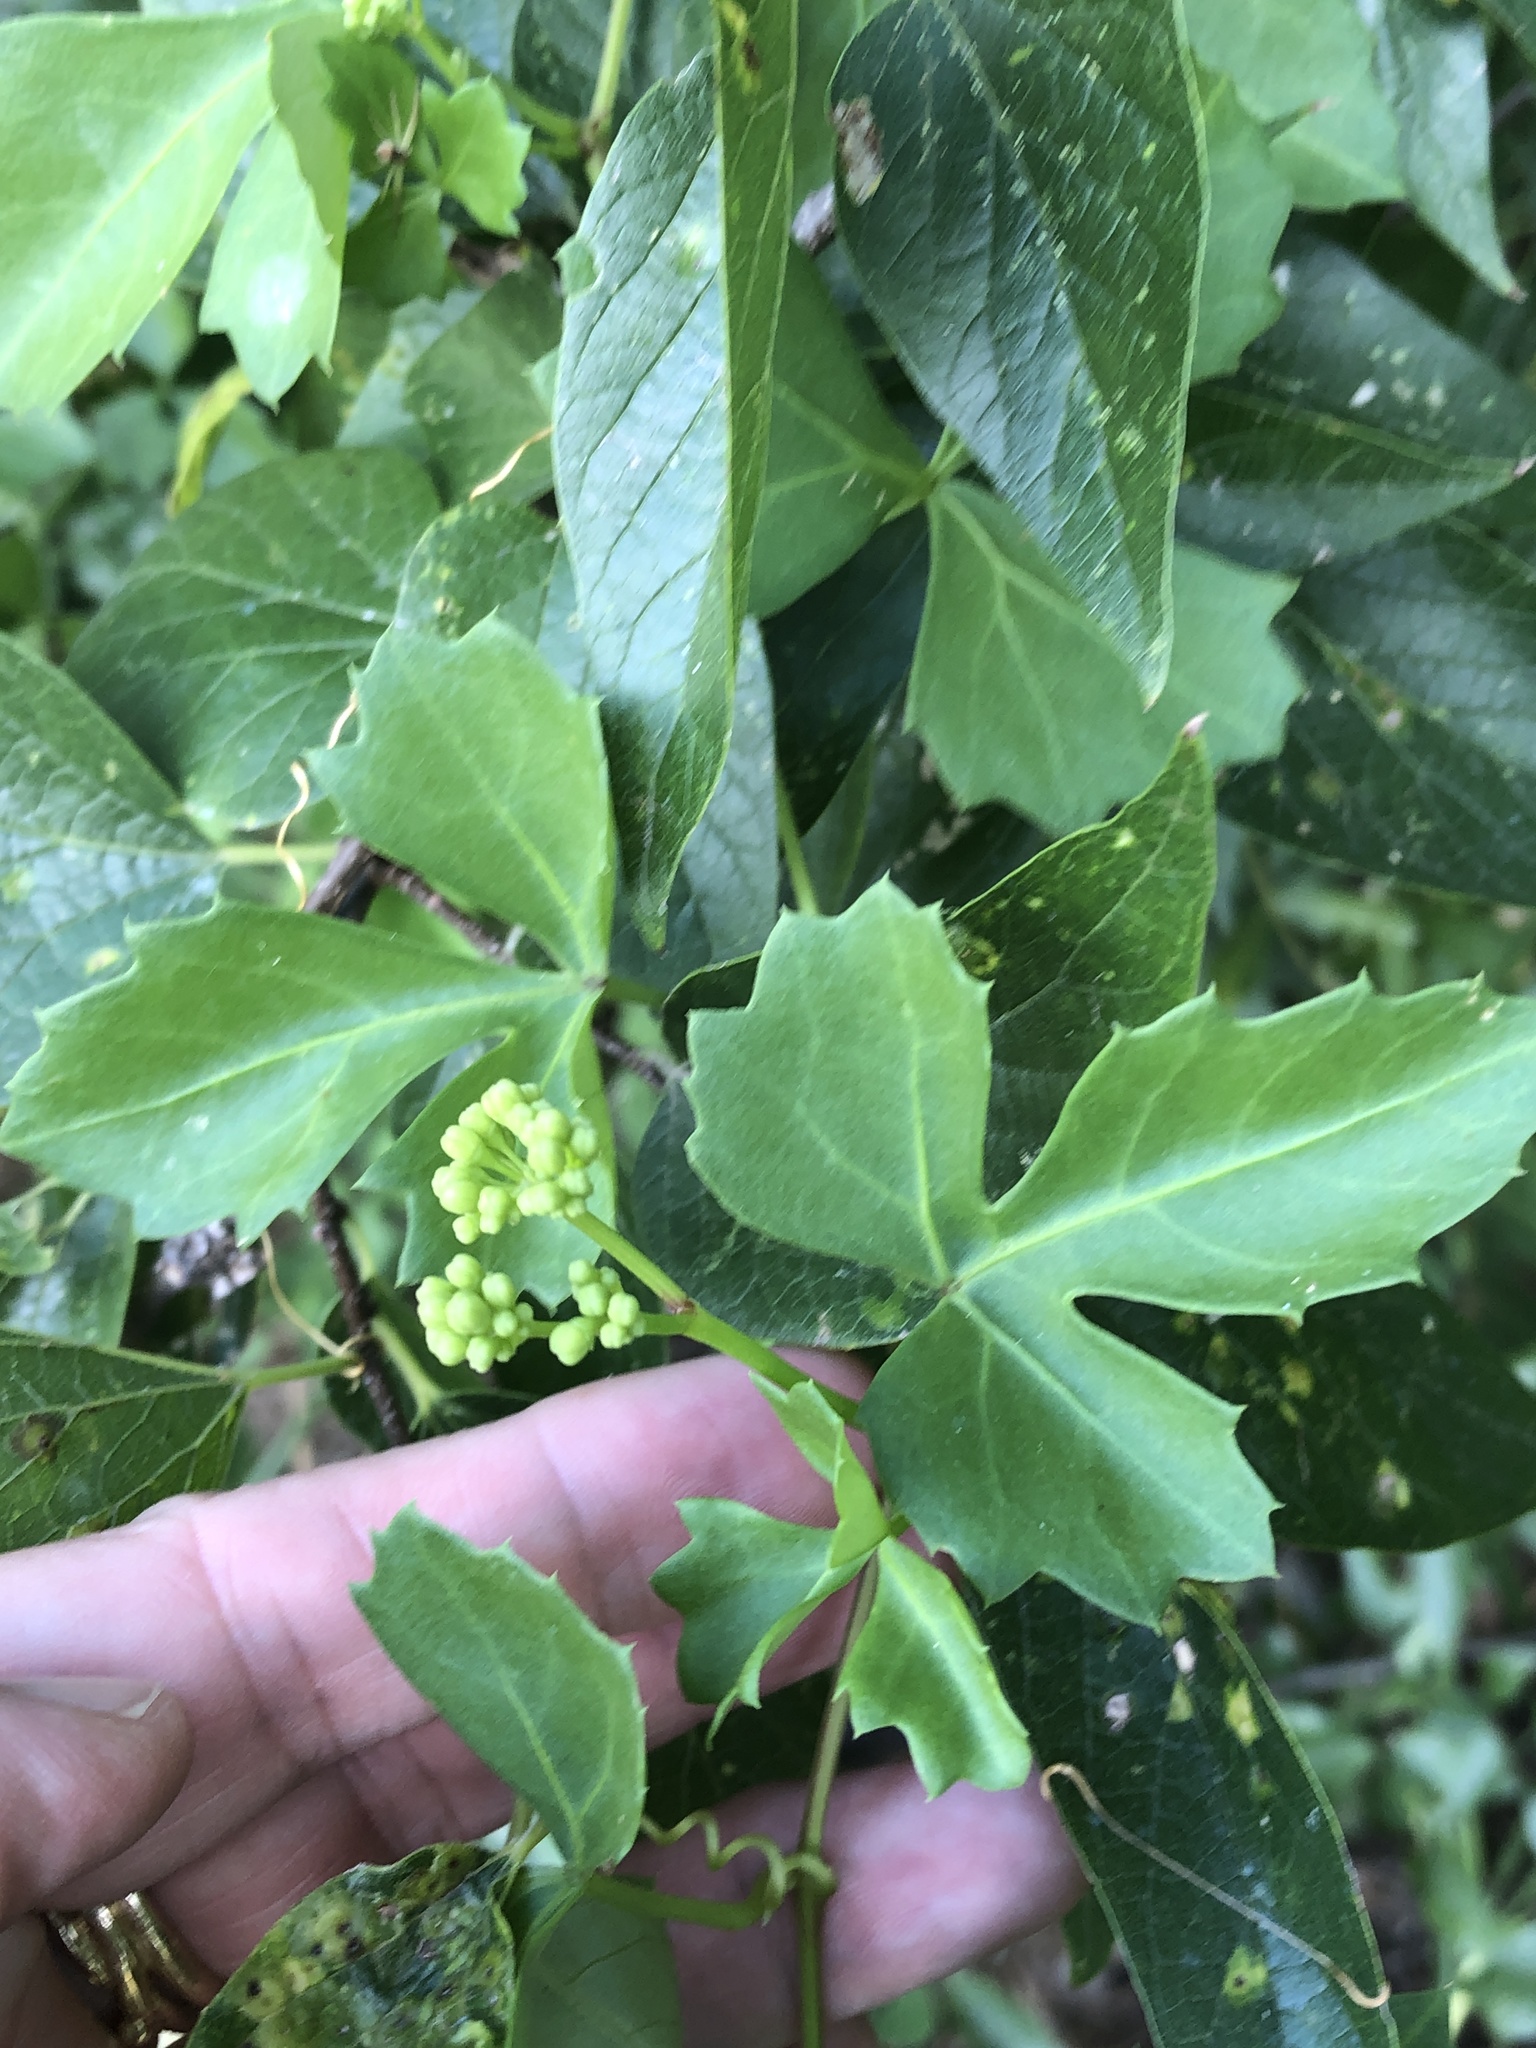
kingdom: Plantae
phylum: Tracheophyta
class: Magnoliopsida
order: Vitales
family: Vitaceae
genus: Cissus
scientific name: Cissus trifoliata
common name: Vine-sorrel
